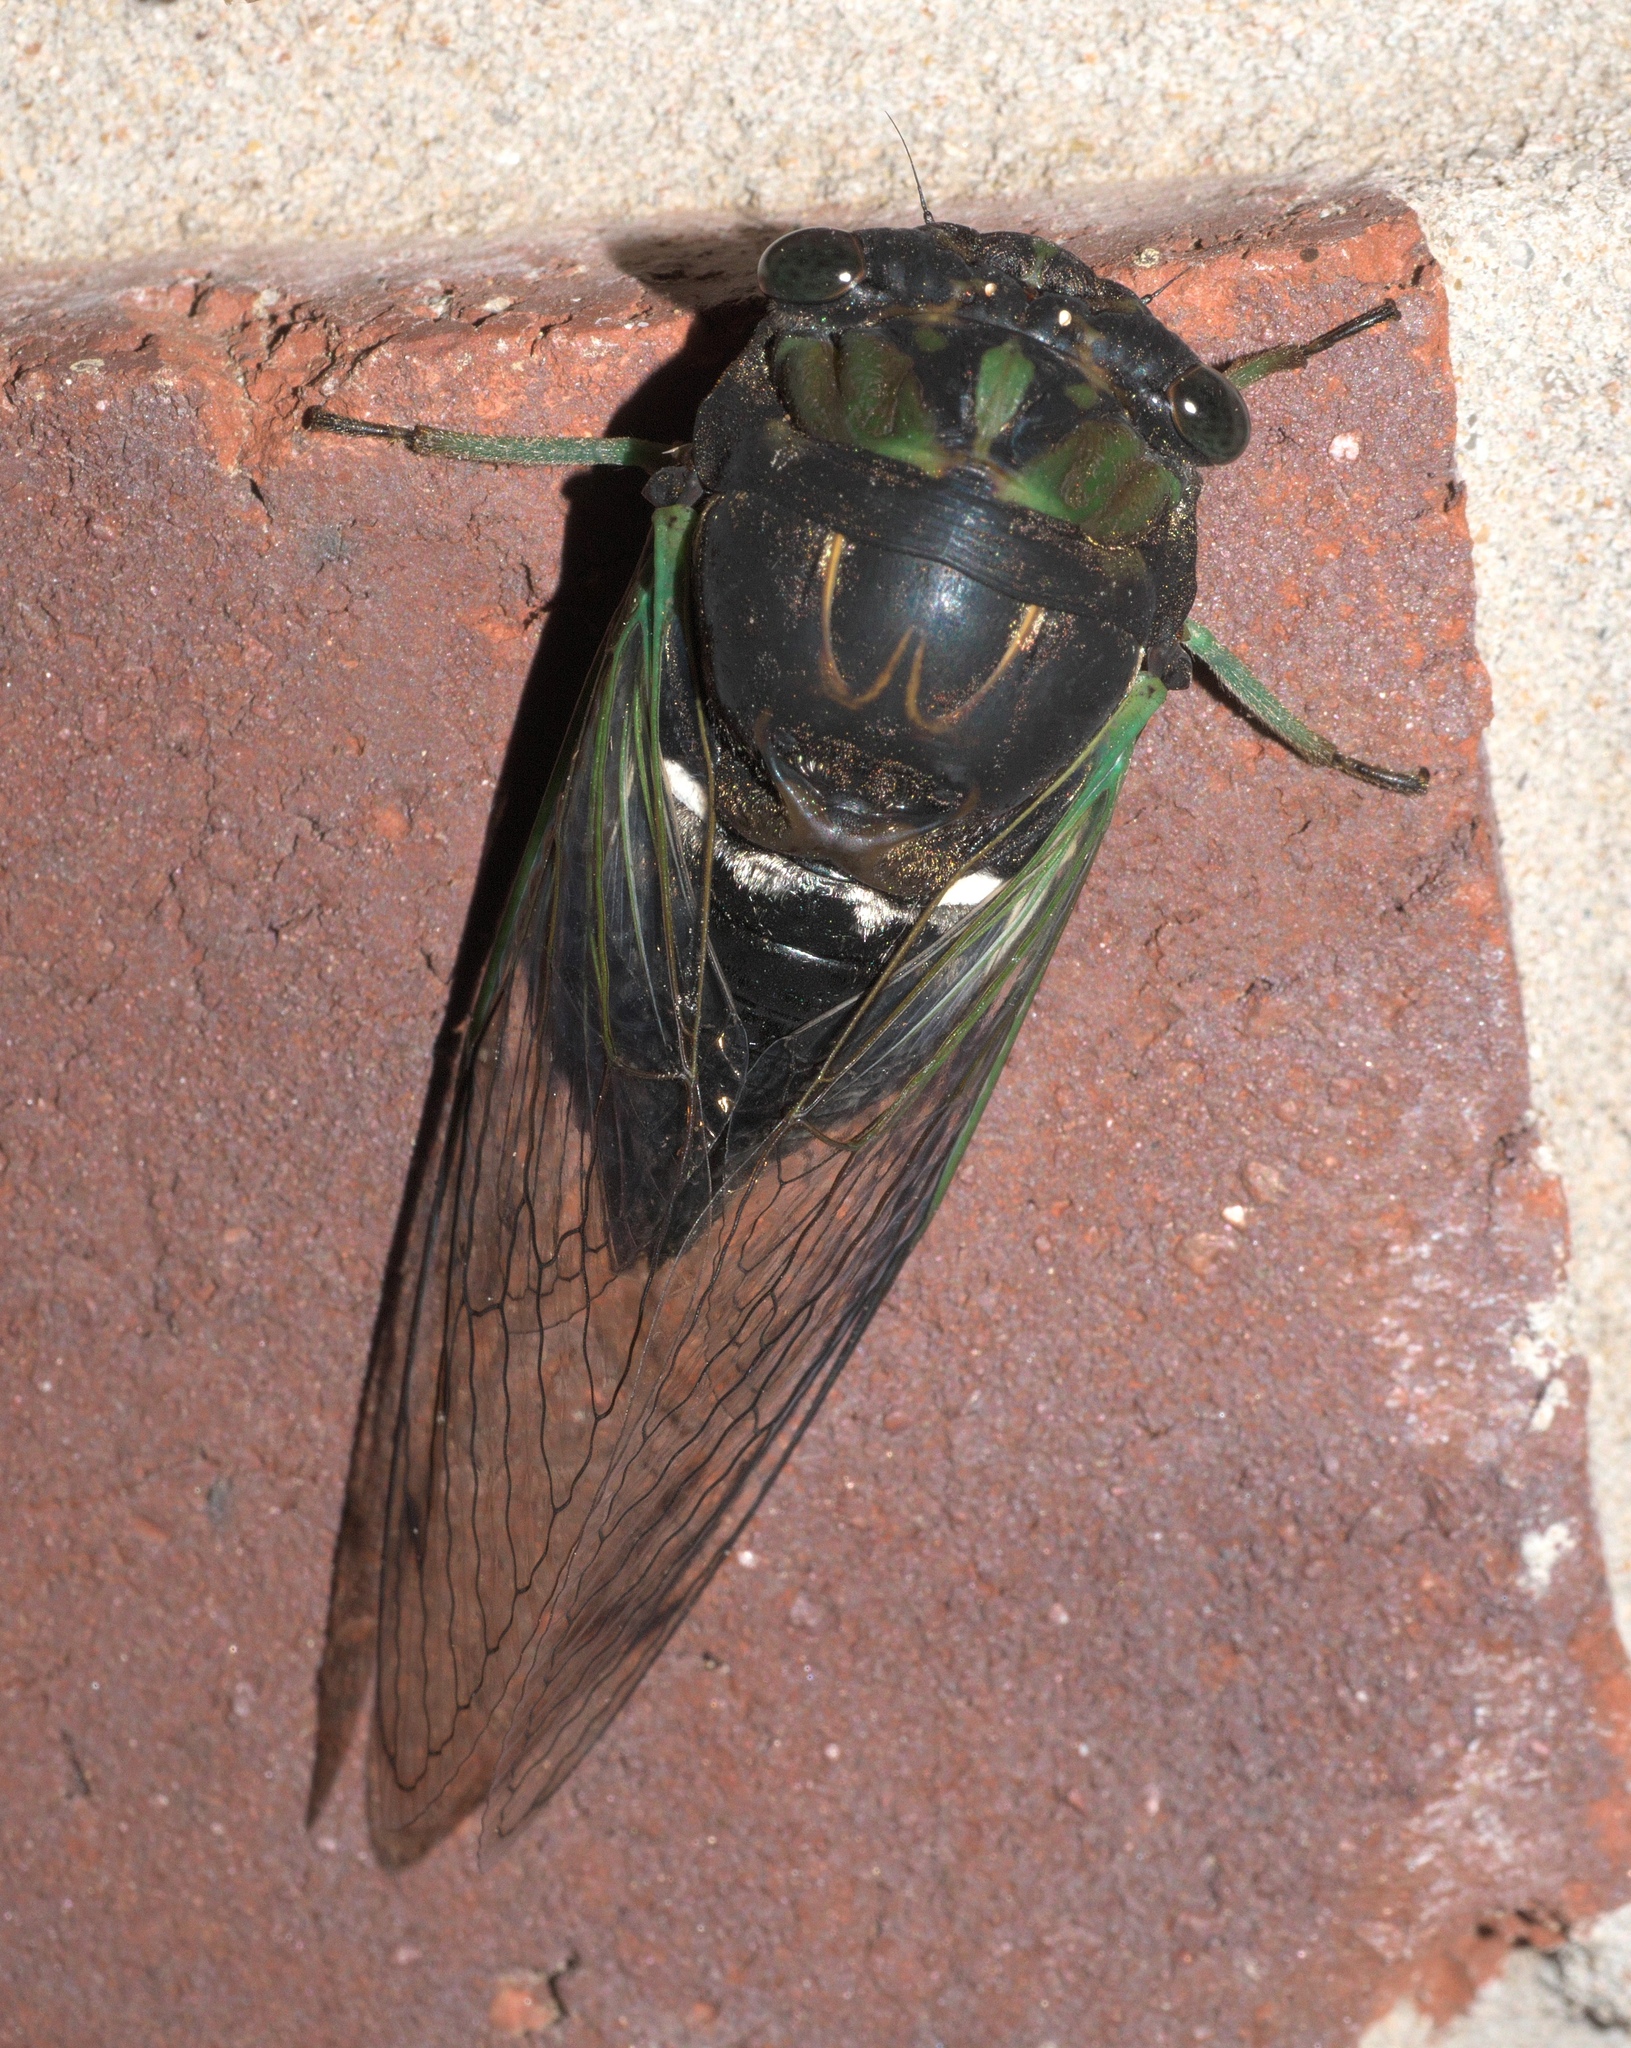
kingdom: Animalia
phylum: Arthropoda
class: Insecta
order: Hemiptera
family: Cicadidae
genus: Neotibicen
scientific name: Neotibicen tibicen
